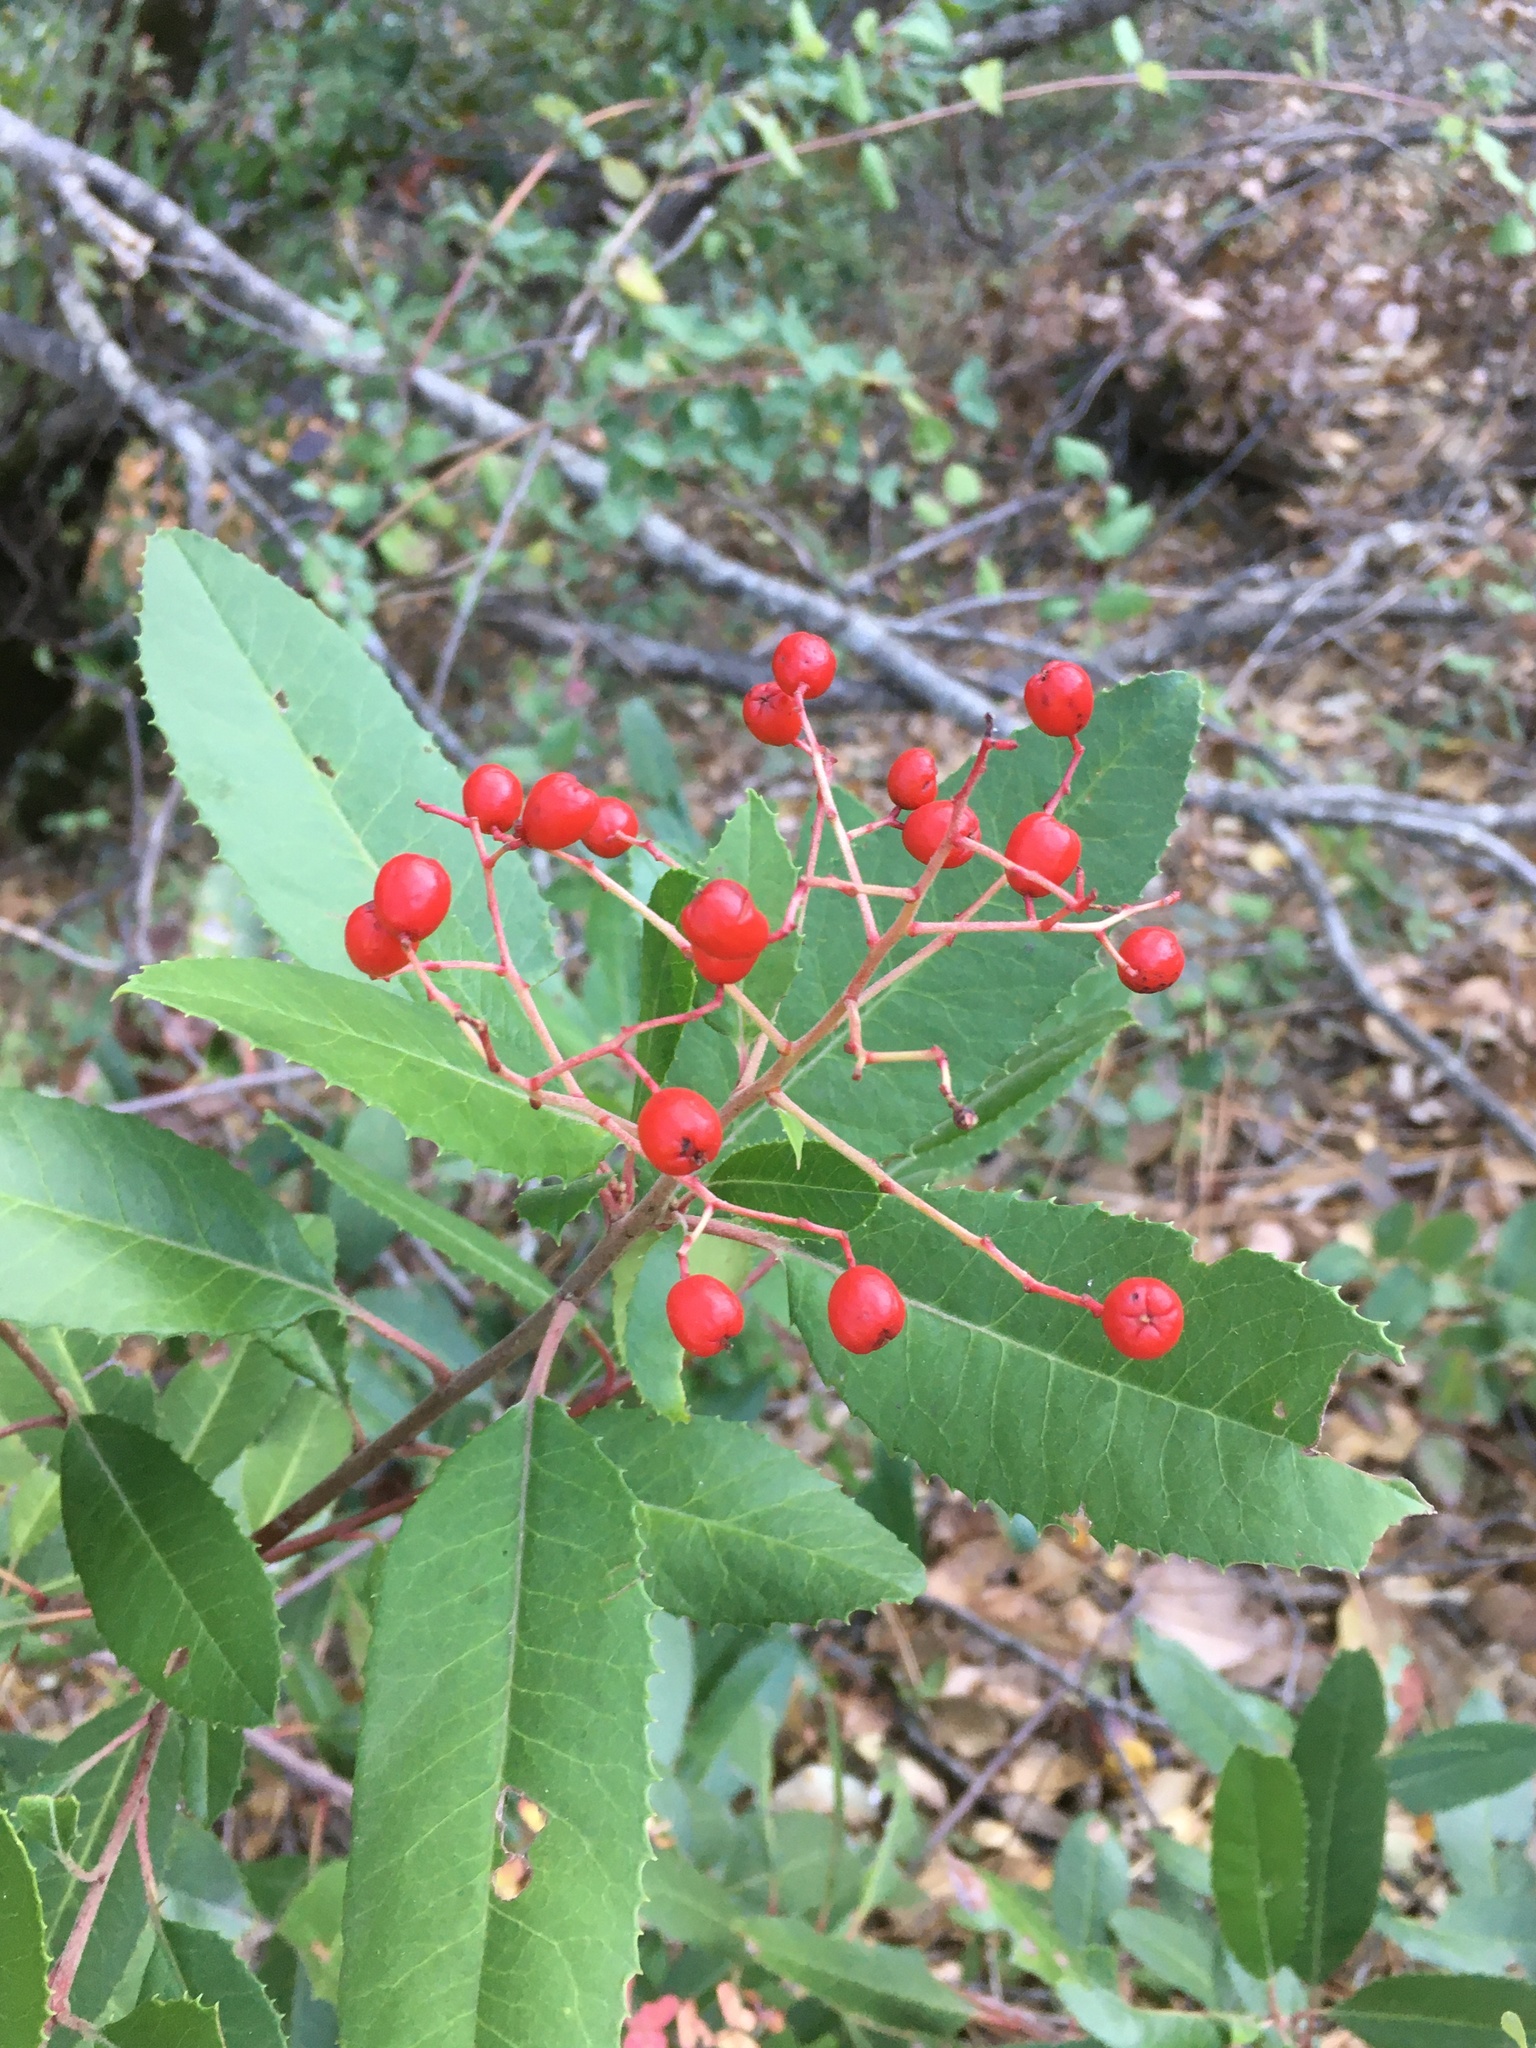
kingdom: Plantae
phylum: Tracheophyta
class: Magnoliopsida
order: Rosales
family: Rosaceae
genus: Heteromeles
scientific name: Heteromeles arbutifolia
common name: California-holly
